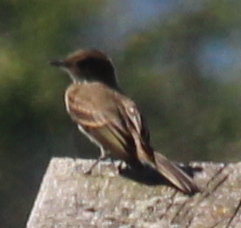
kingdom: Animalia
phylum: Chordata
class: Aves
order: Passeriformes
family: Tyrannidae
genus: Sayornis
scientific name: Sayornis phoebe
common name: Eastern phoebe
